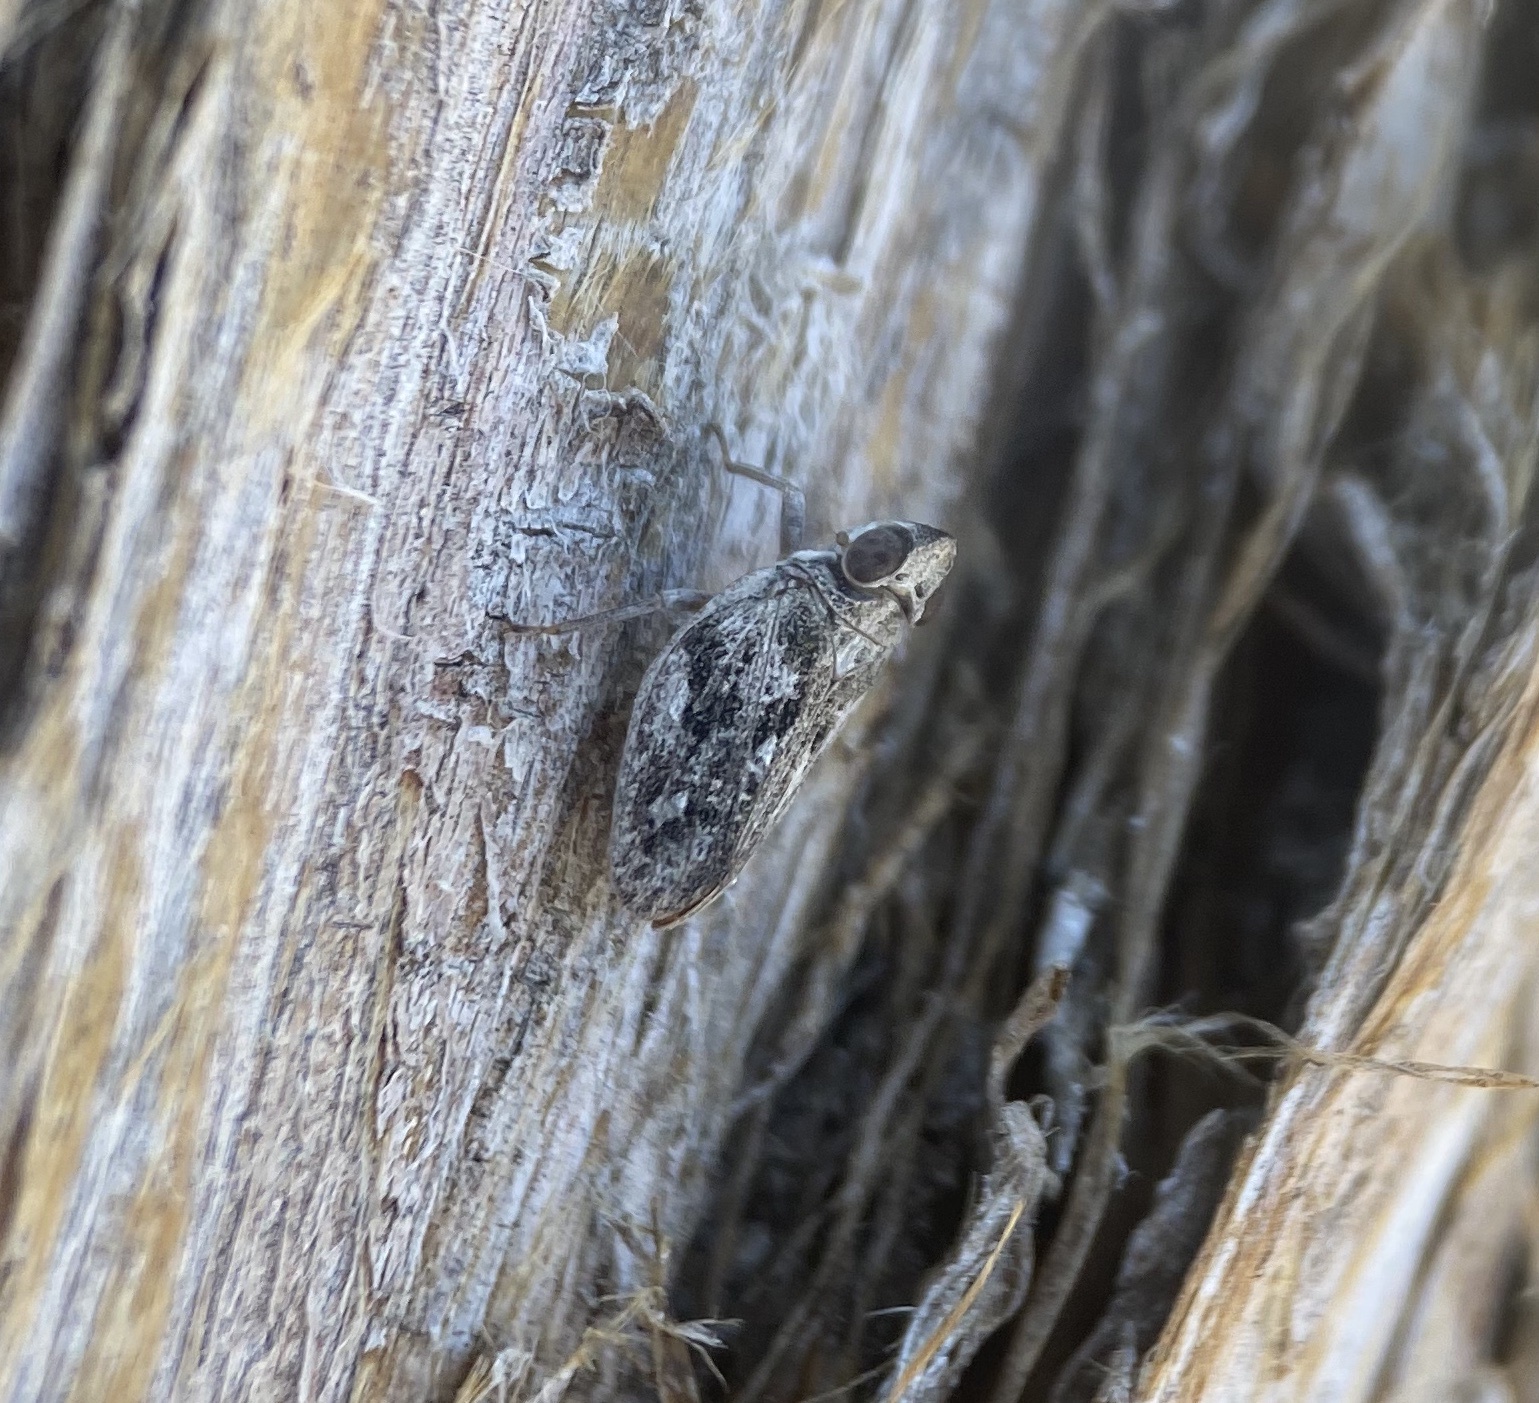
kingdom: Animalia
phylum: Arthropoda
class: Insecta
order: Hemiptera
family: Issidae
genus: Fowlerium
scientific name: Fowlerium productum
